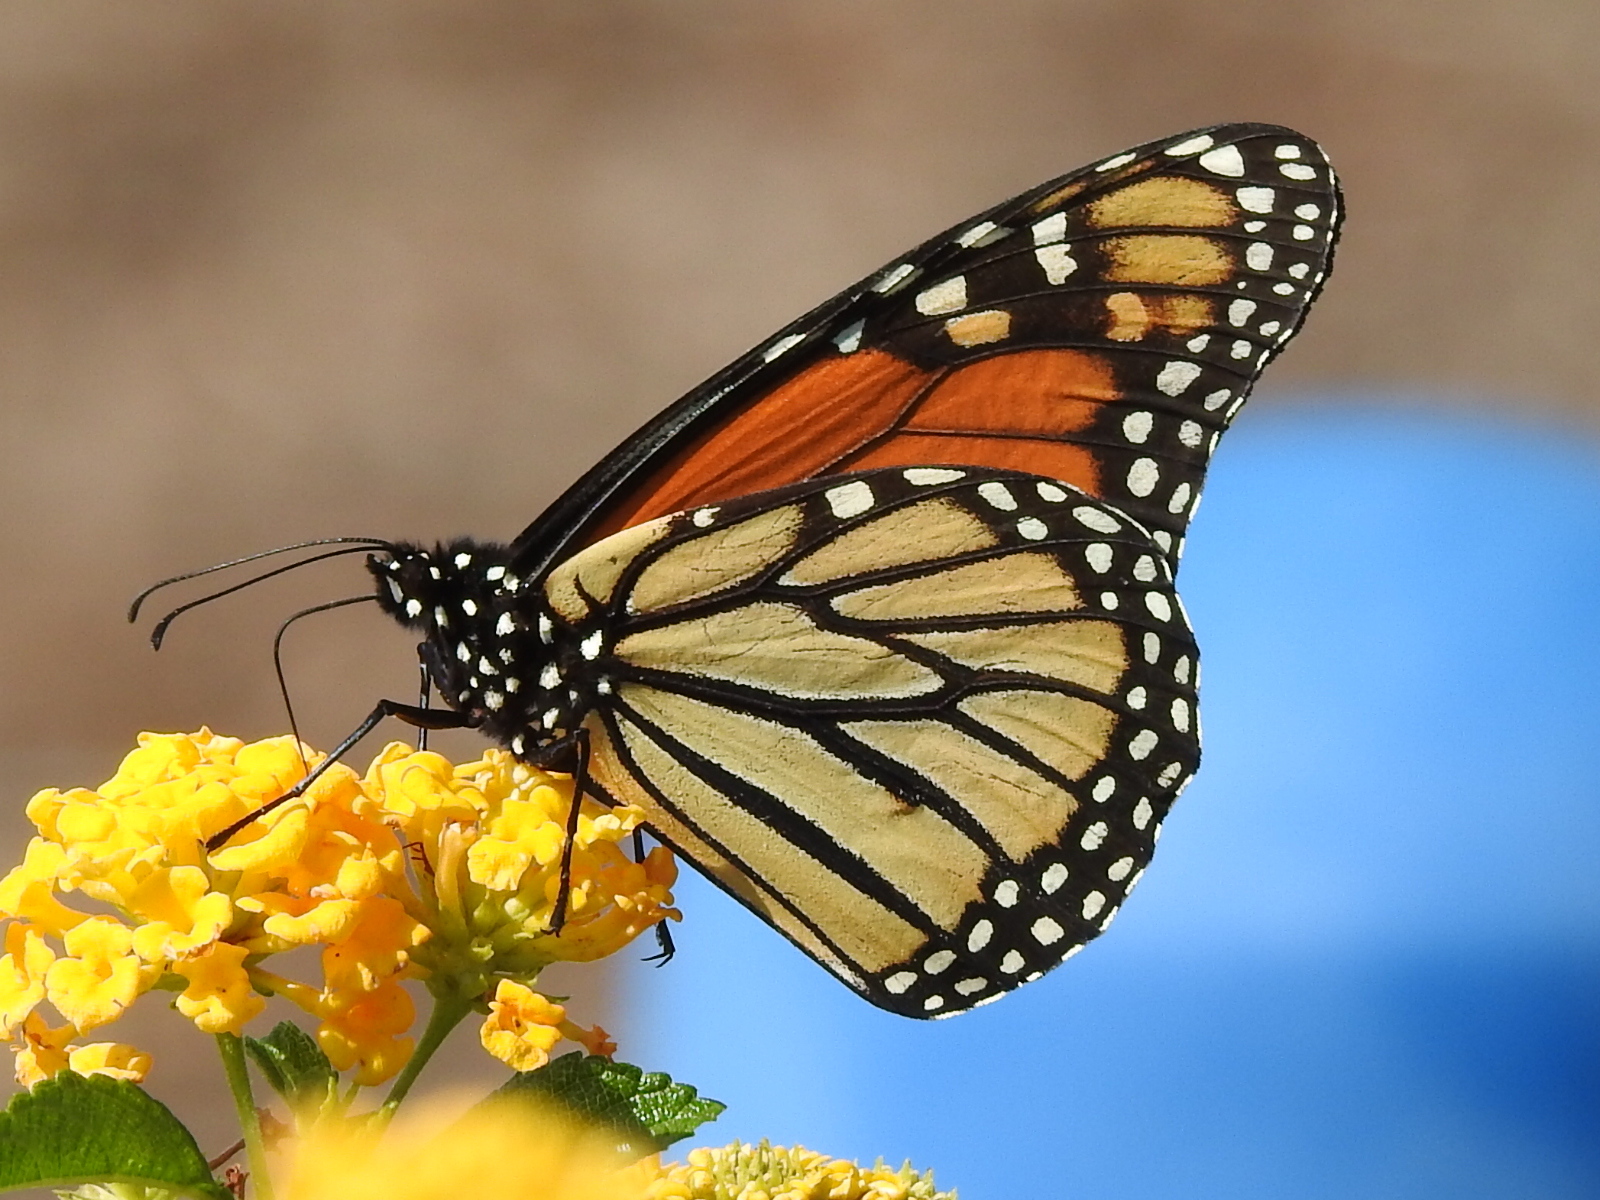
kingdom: Animalia
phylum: Arthropoda
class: Insecta
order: Lepidoptera
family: Nymphalidae
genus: Danaus
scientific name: Danaus plexippus
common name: Monarch
